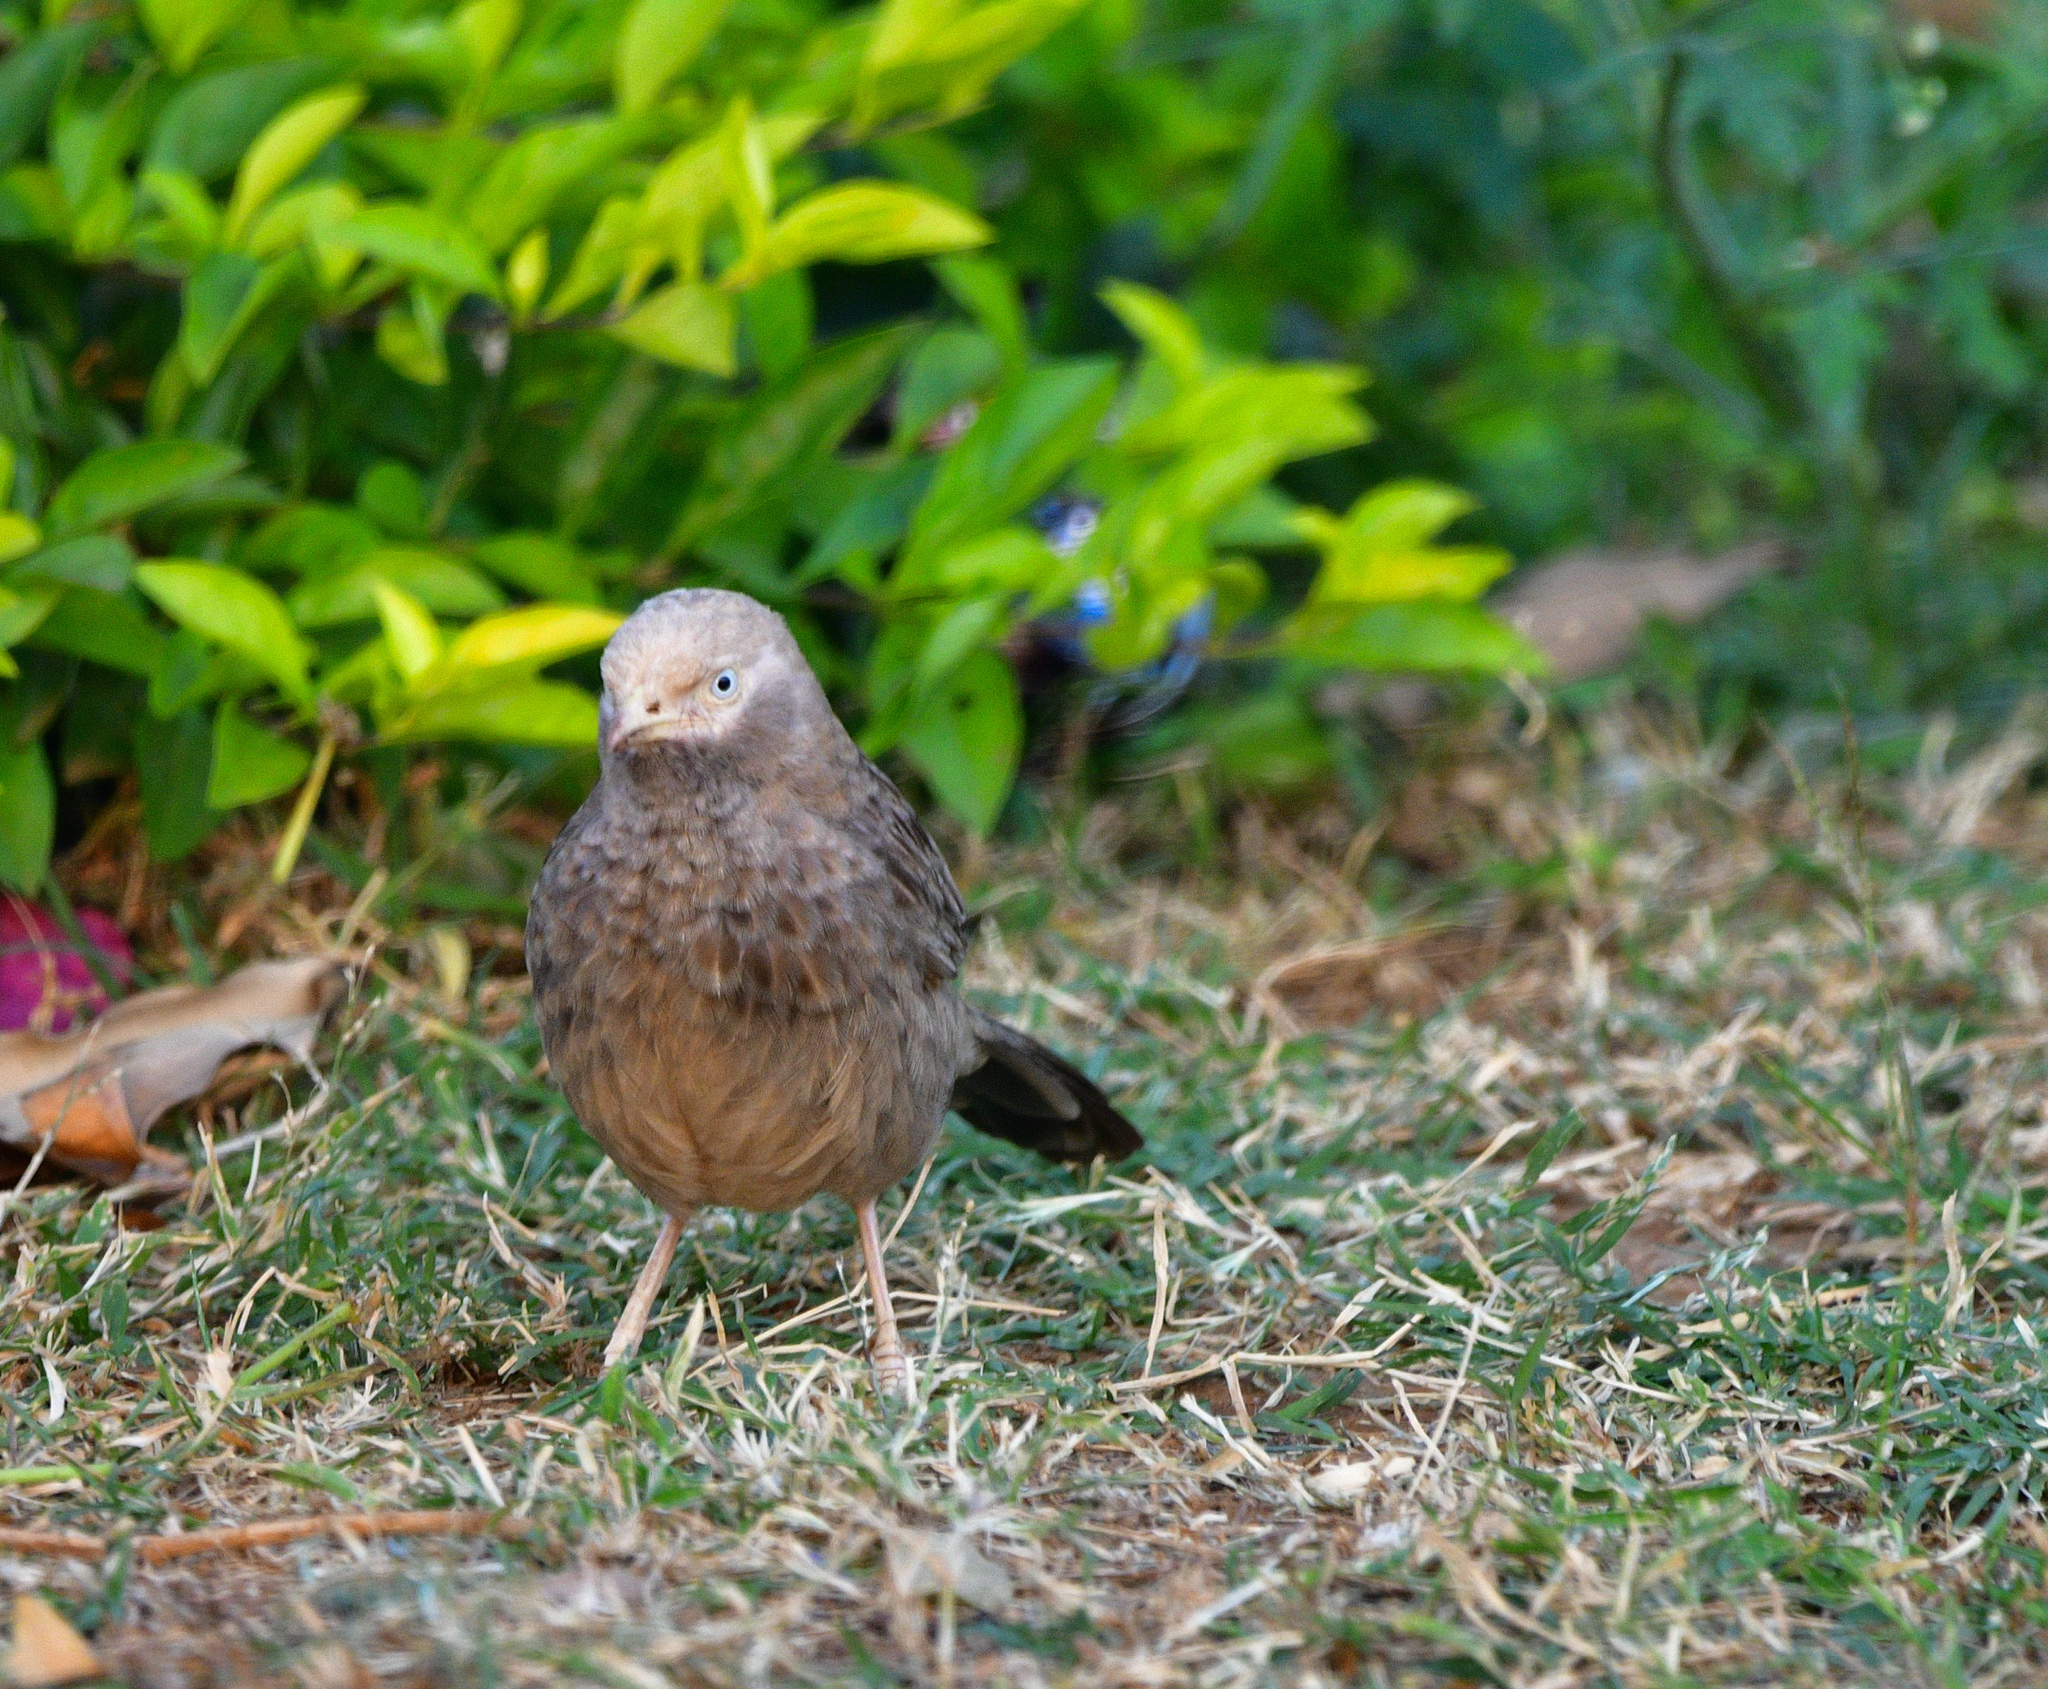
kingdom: Animalia
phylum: Chordata
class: Aves
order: Passeriformes
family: Leiothrichidae
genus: Turdoides
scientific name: Turdoides affinis
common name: Yellow-billed babbler
